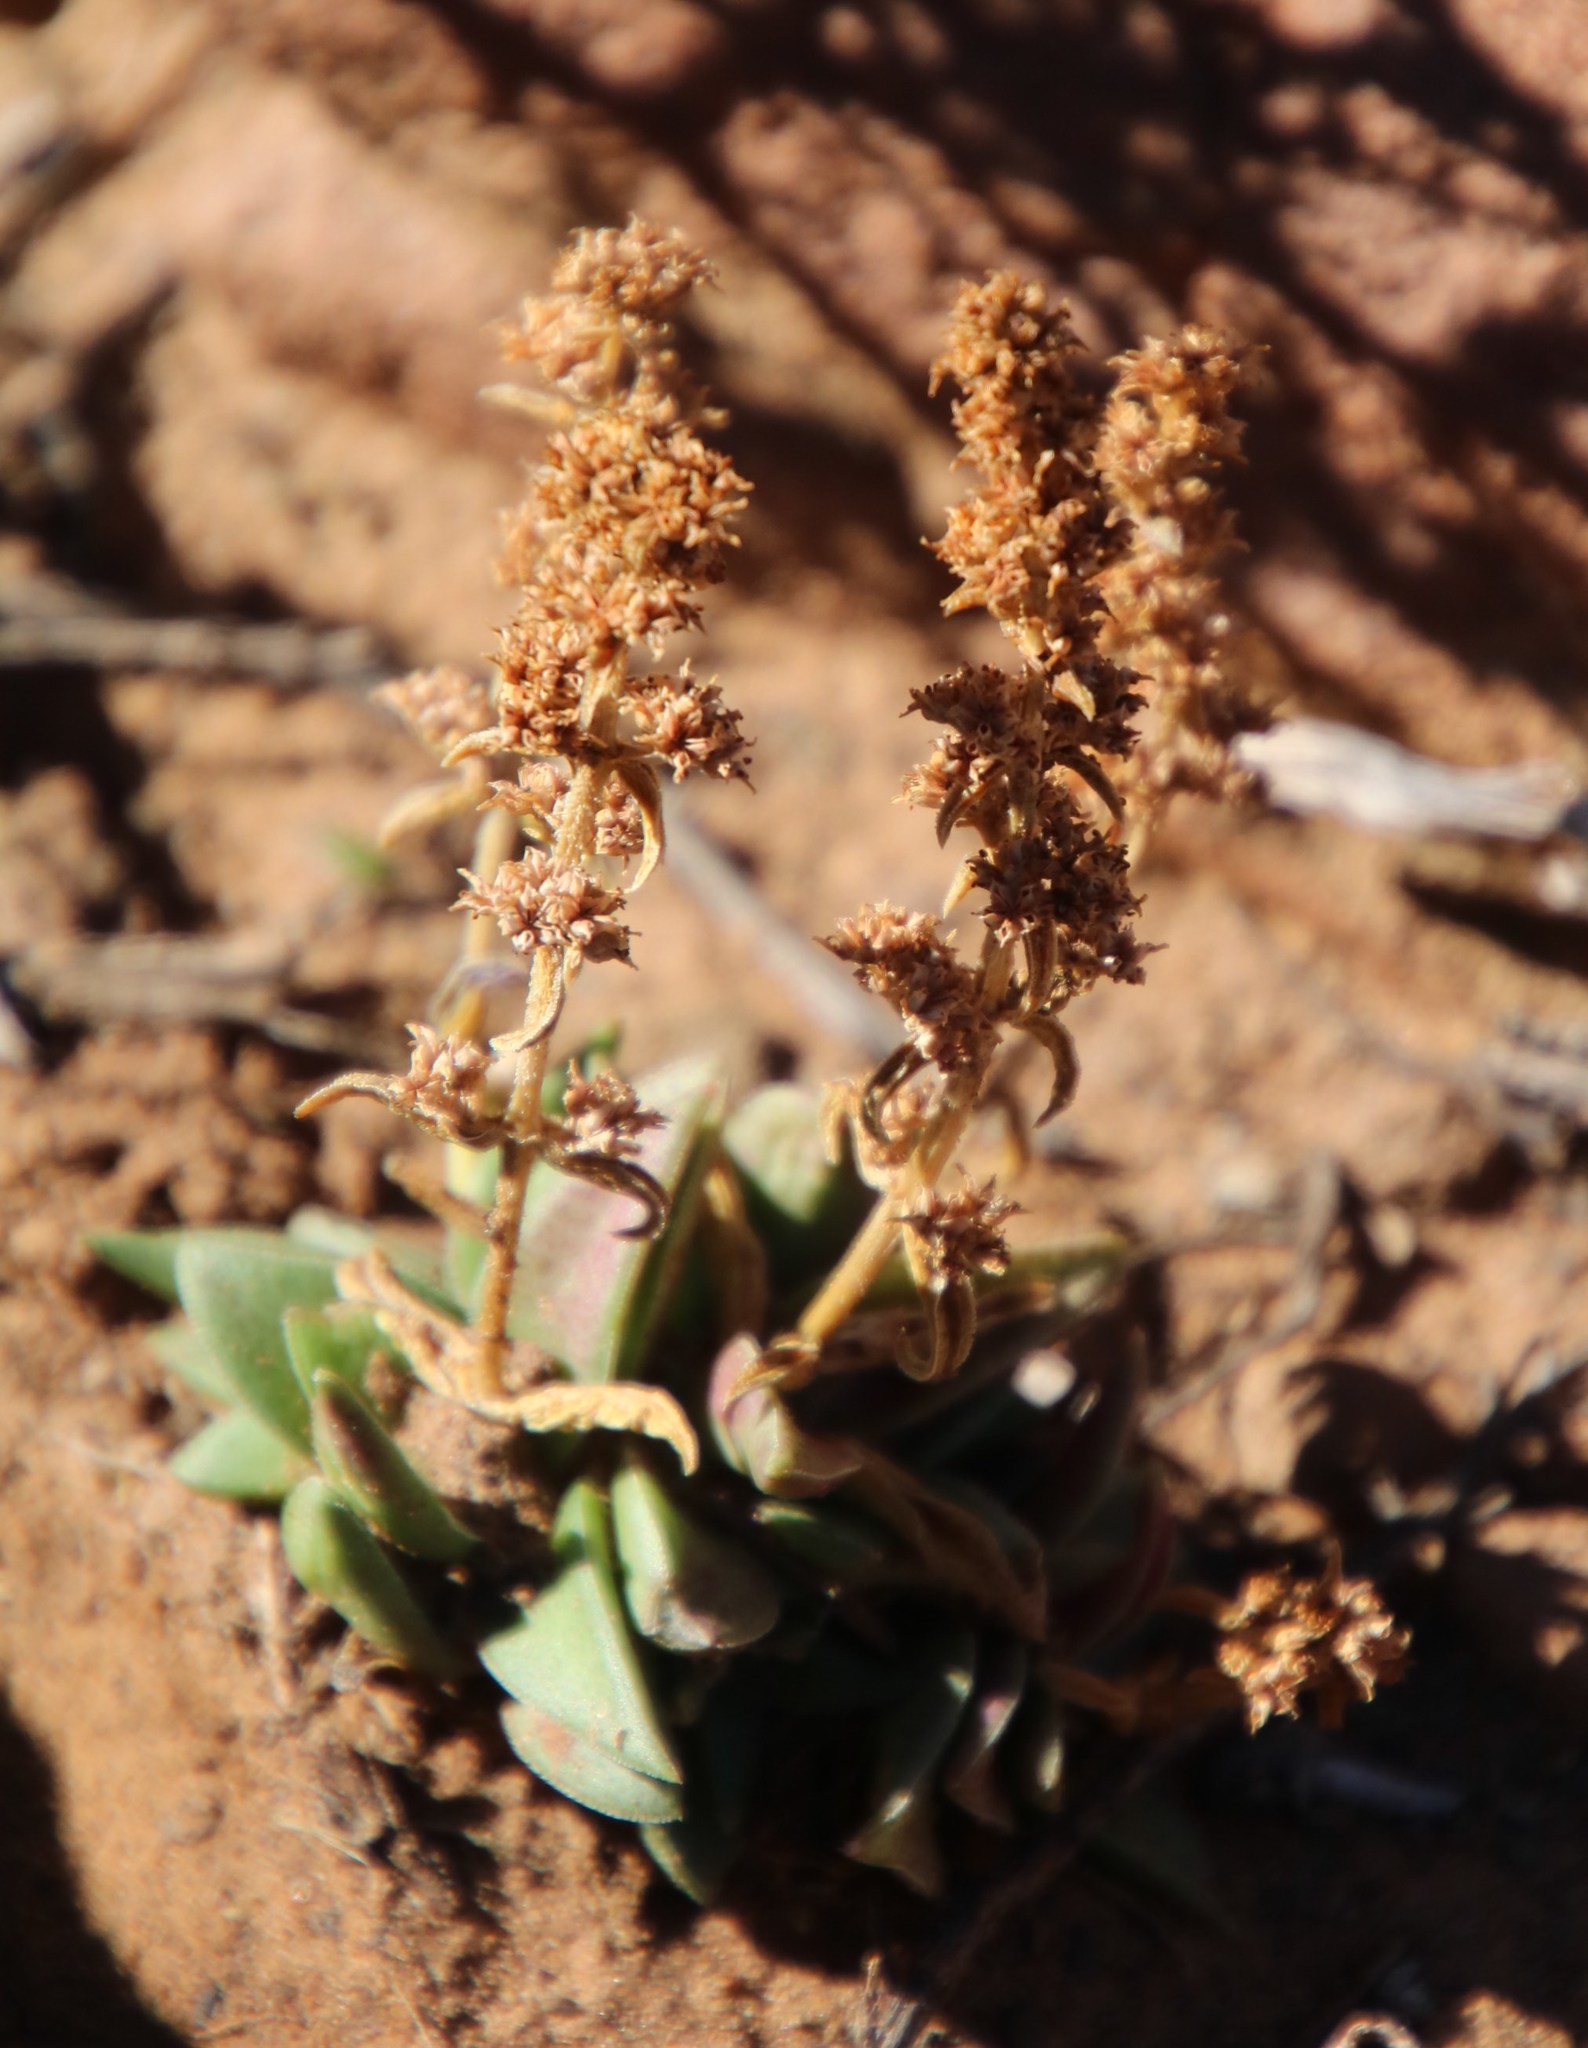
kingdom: Plantae
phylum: Tracheophyta
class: Magnoliopsida
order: Saxifragales
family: Crassulaceae
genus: Crassula
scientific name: Crassula capitella
